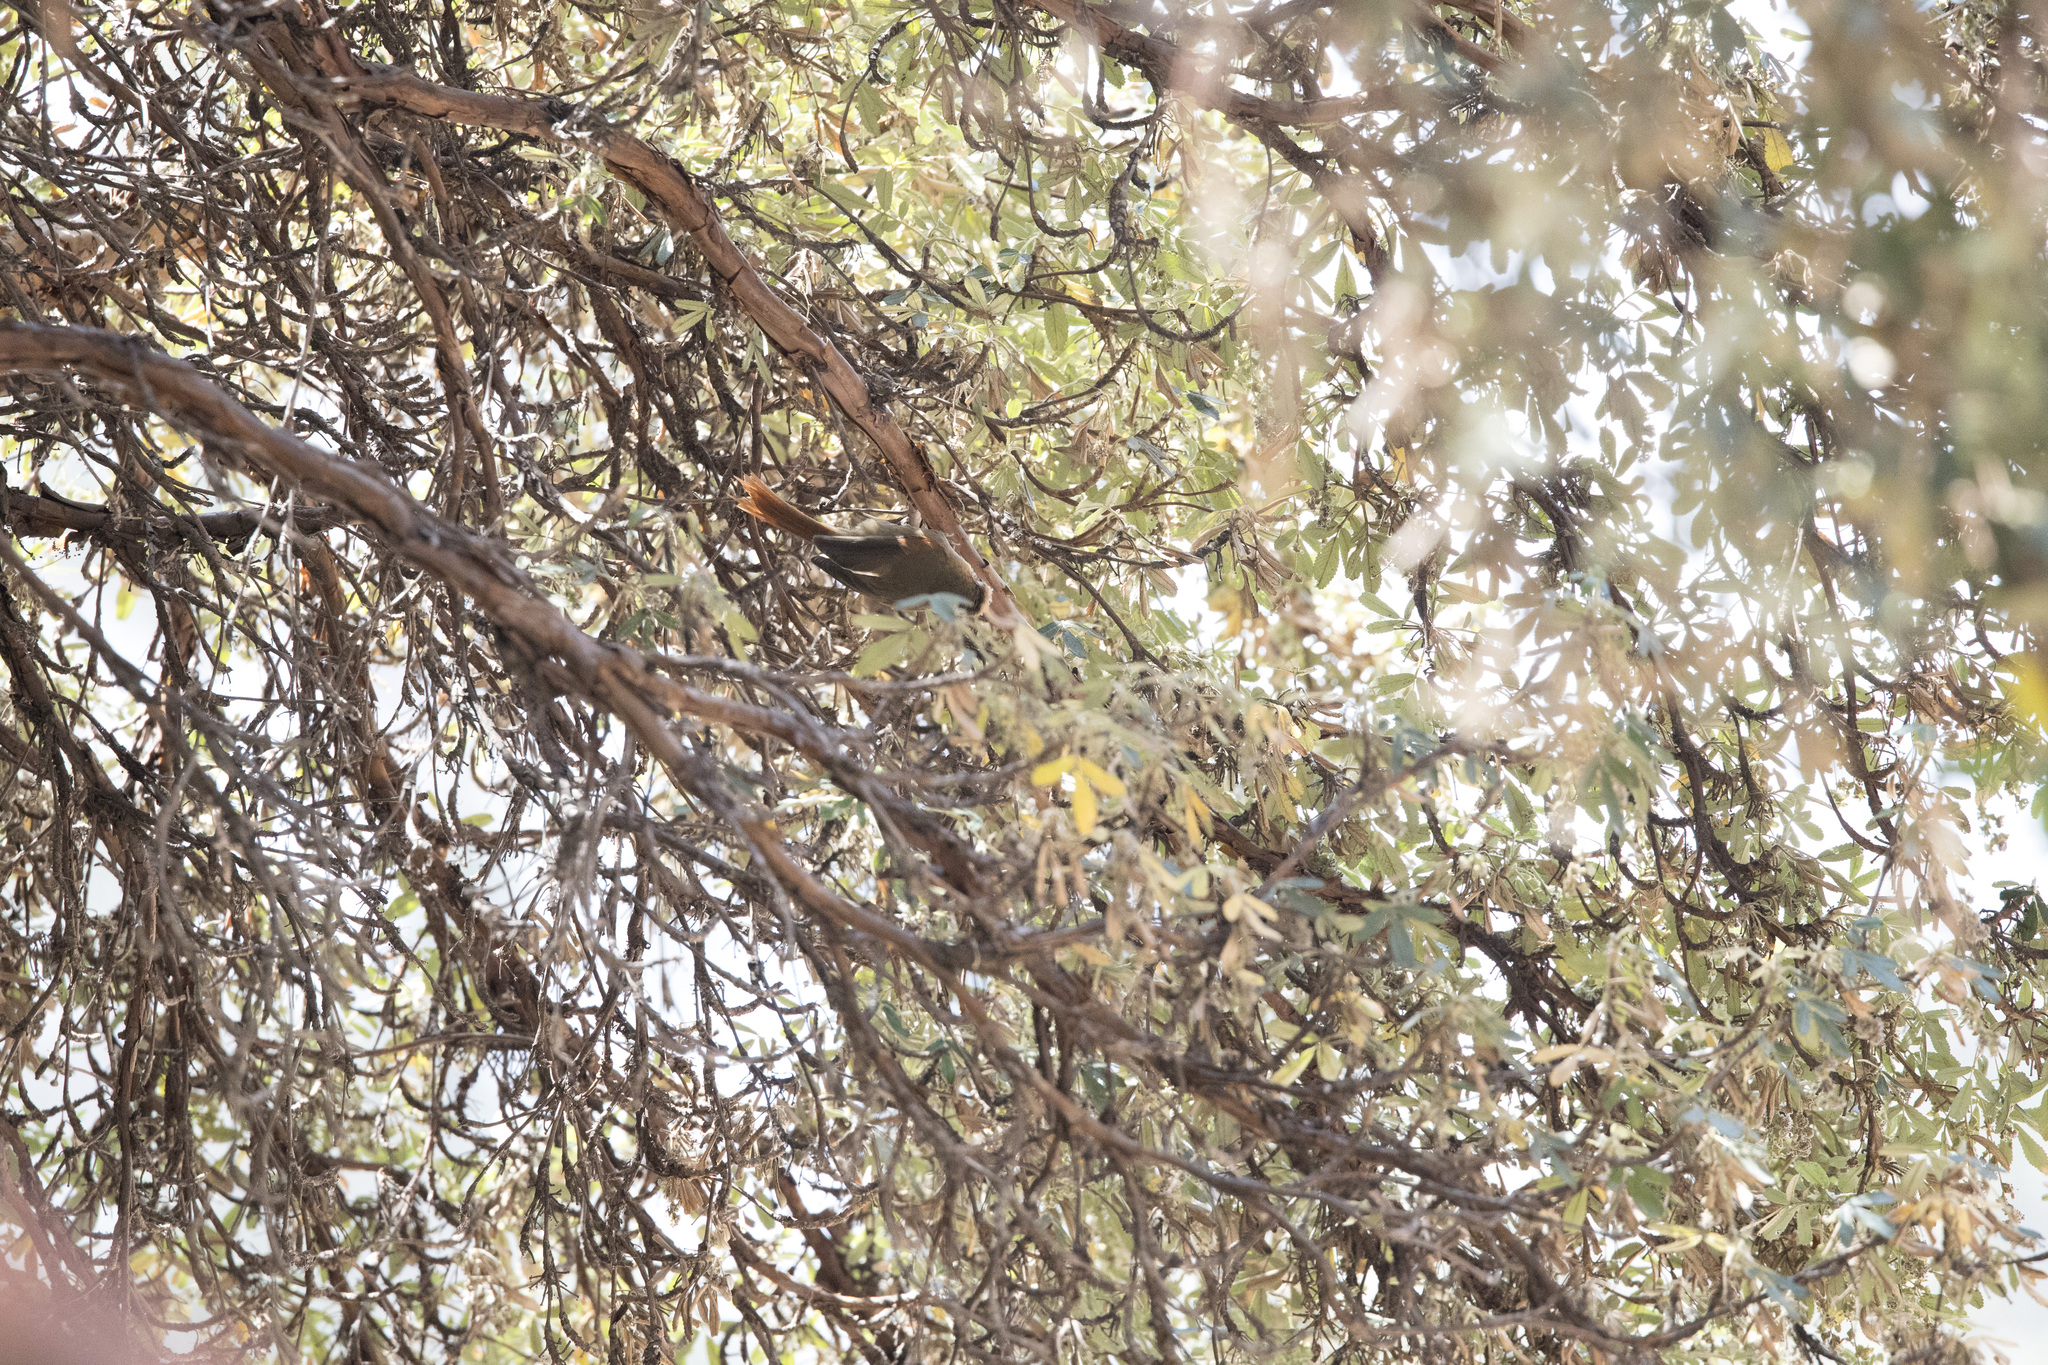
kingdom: Animalia
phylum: Chordata
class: Aves
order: Passeriformes
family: Furnariidae
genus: Cranioleuca
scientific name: Cranioleuca albicapilla
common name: Creamy-crested spinetail
